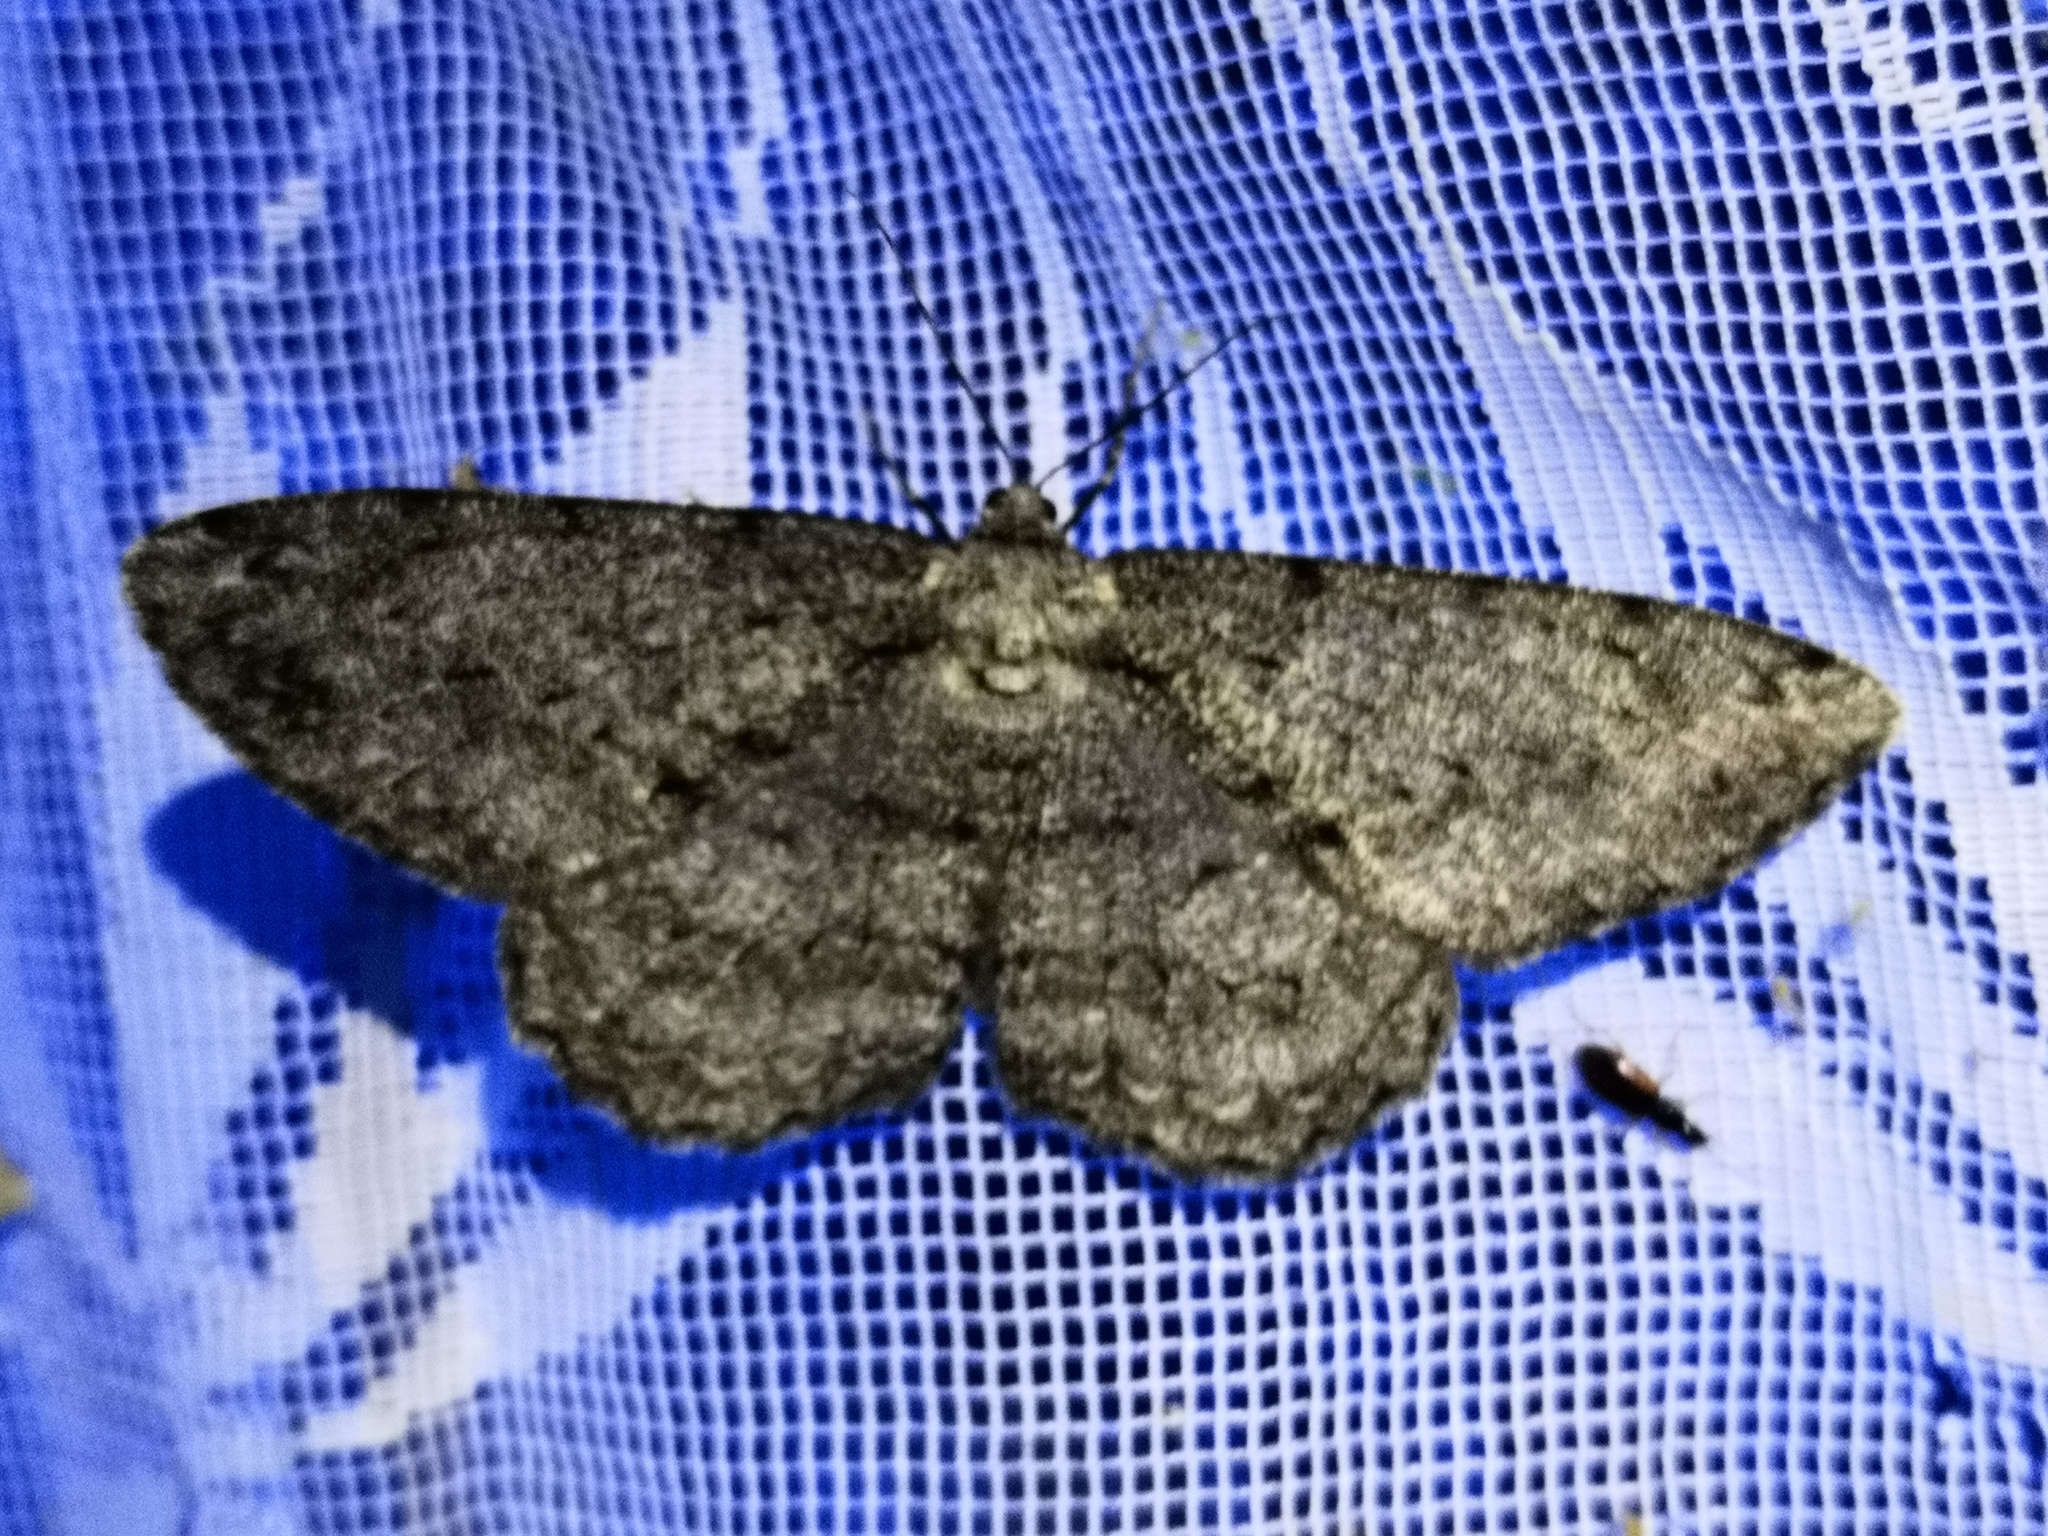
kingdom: Animalia
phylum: Arthropoda
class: Insecta
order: Lepidoptera
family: Geometridae
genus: Hypomecis
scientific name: Hypomecis roboraria
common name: Great oak beauty
